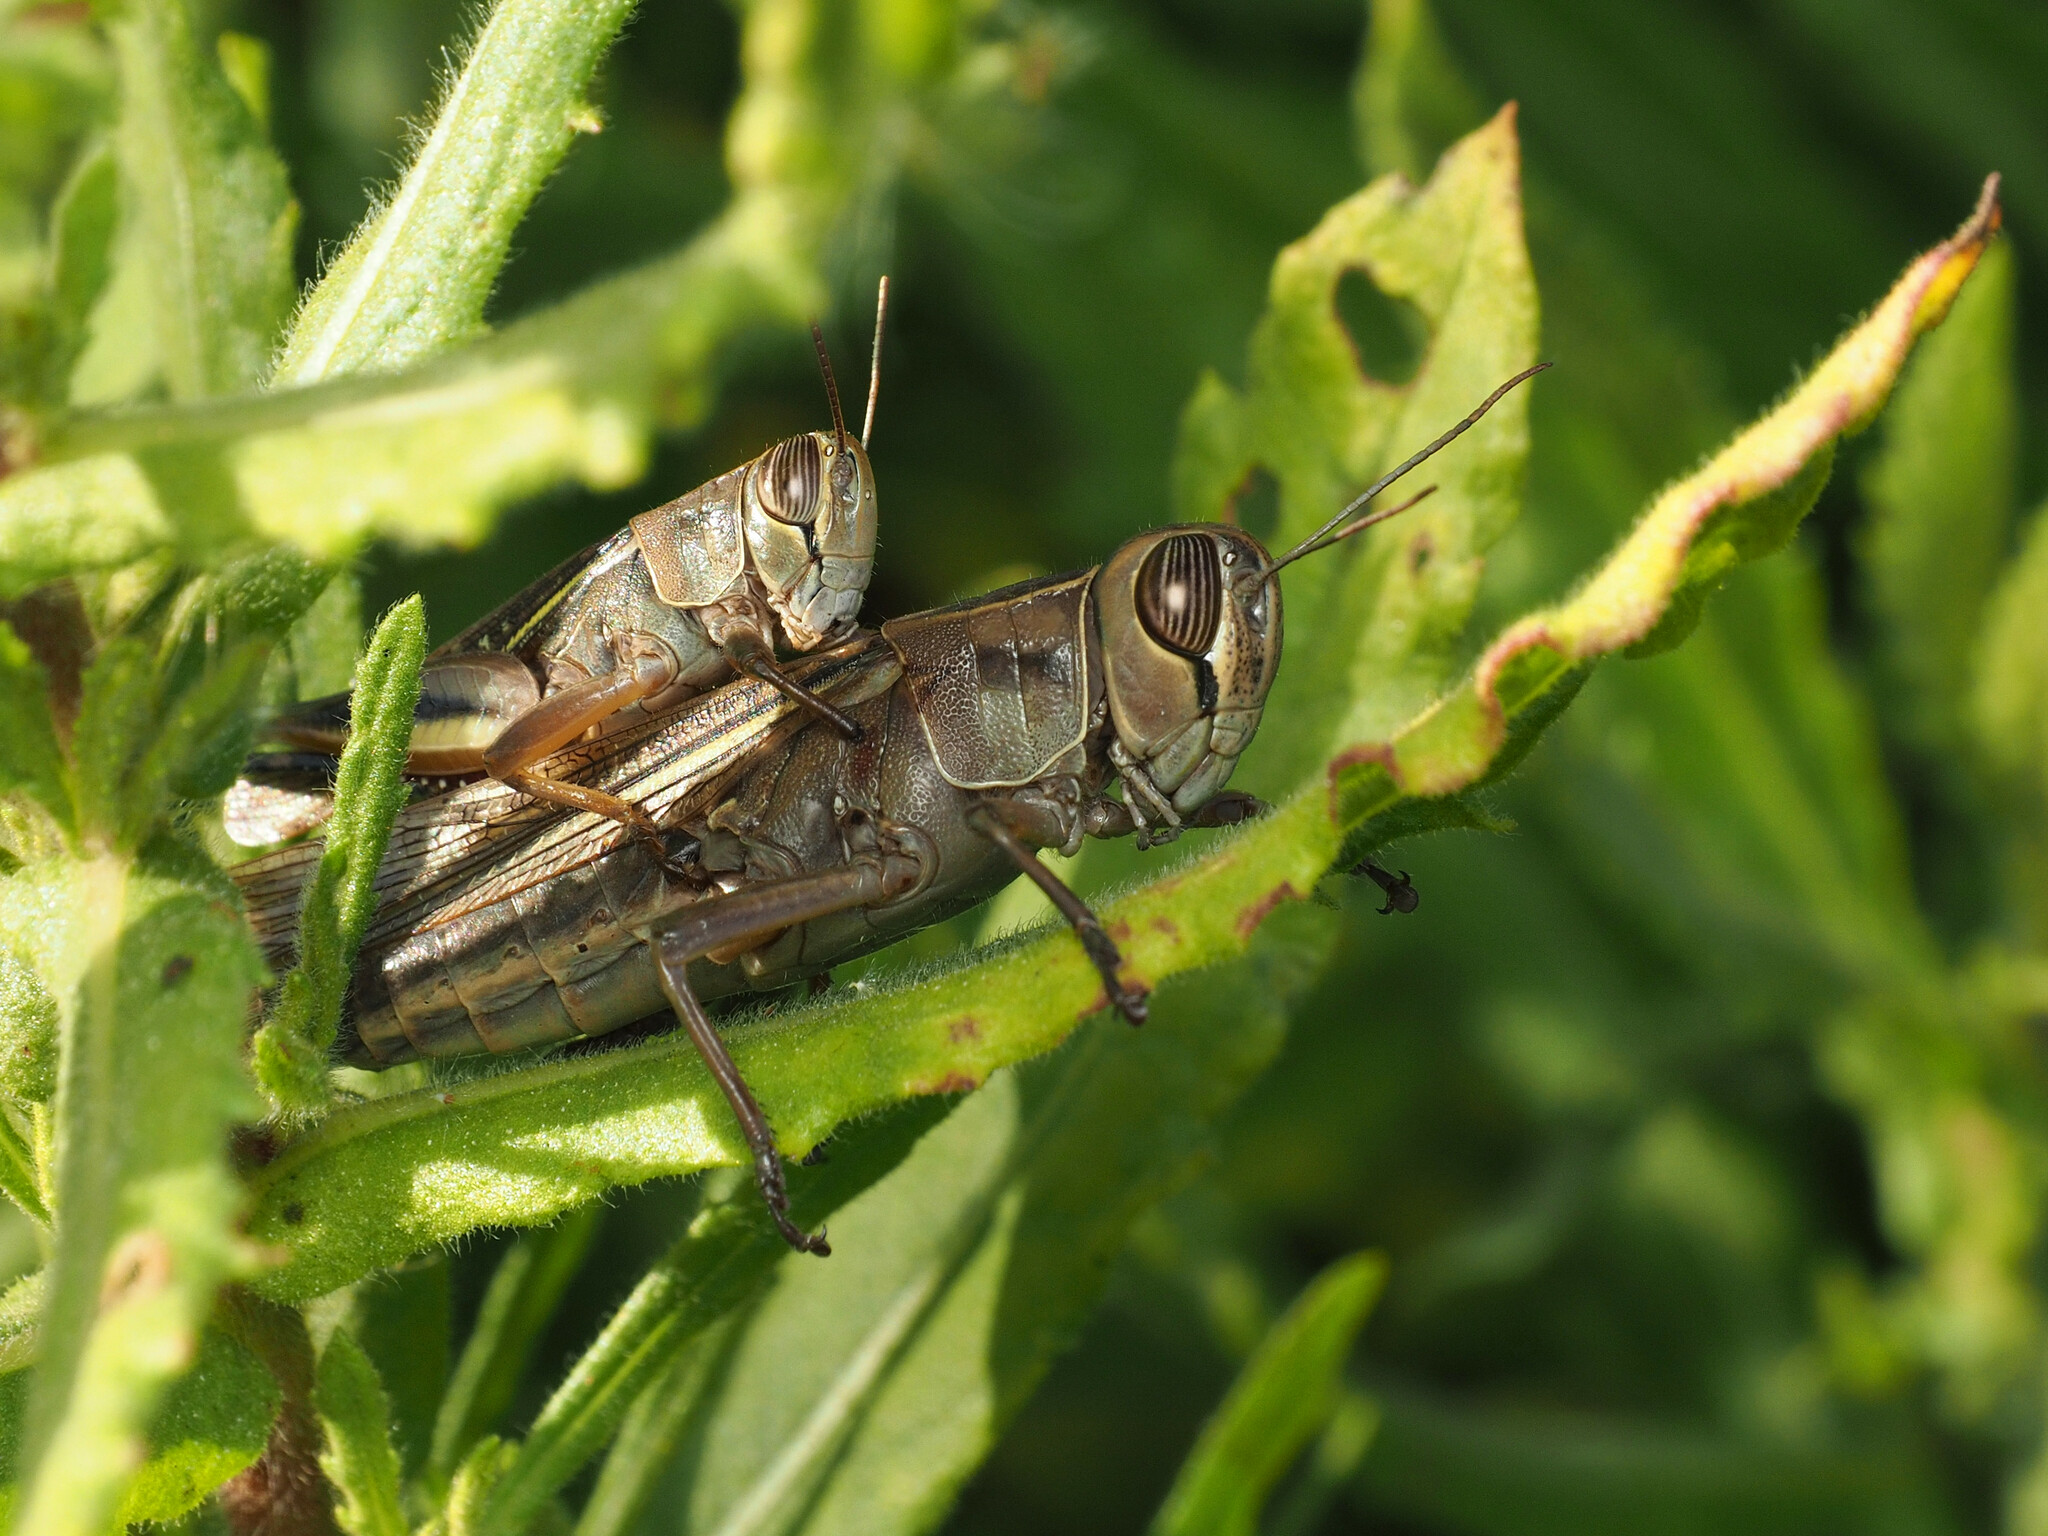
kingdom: Animalia
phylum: Arthropoda
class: Insecta
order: Orthoptera
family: Acrididae
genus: Eyprepocnemis
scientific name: Eyprepocnemis plorans
